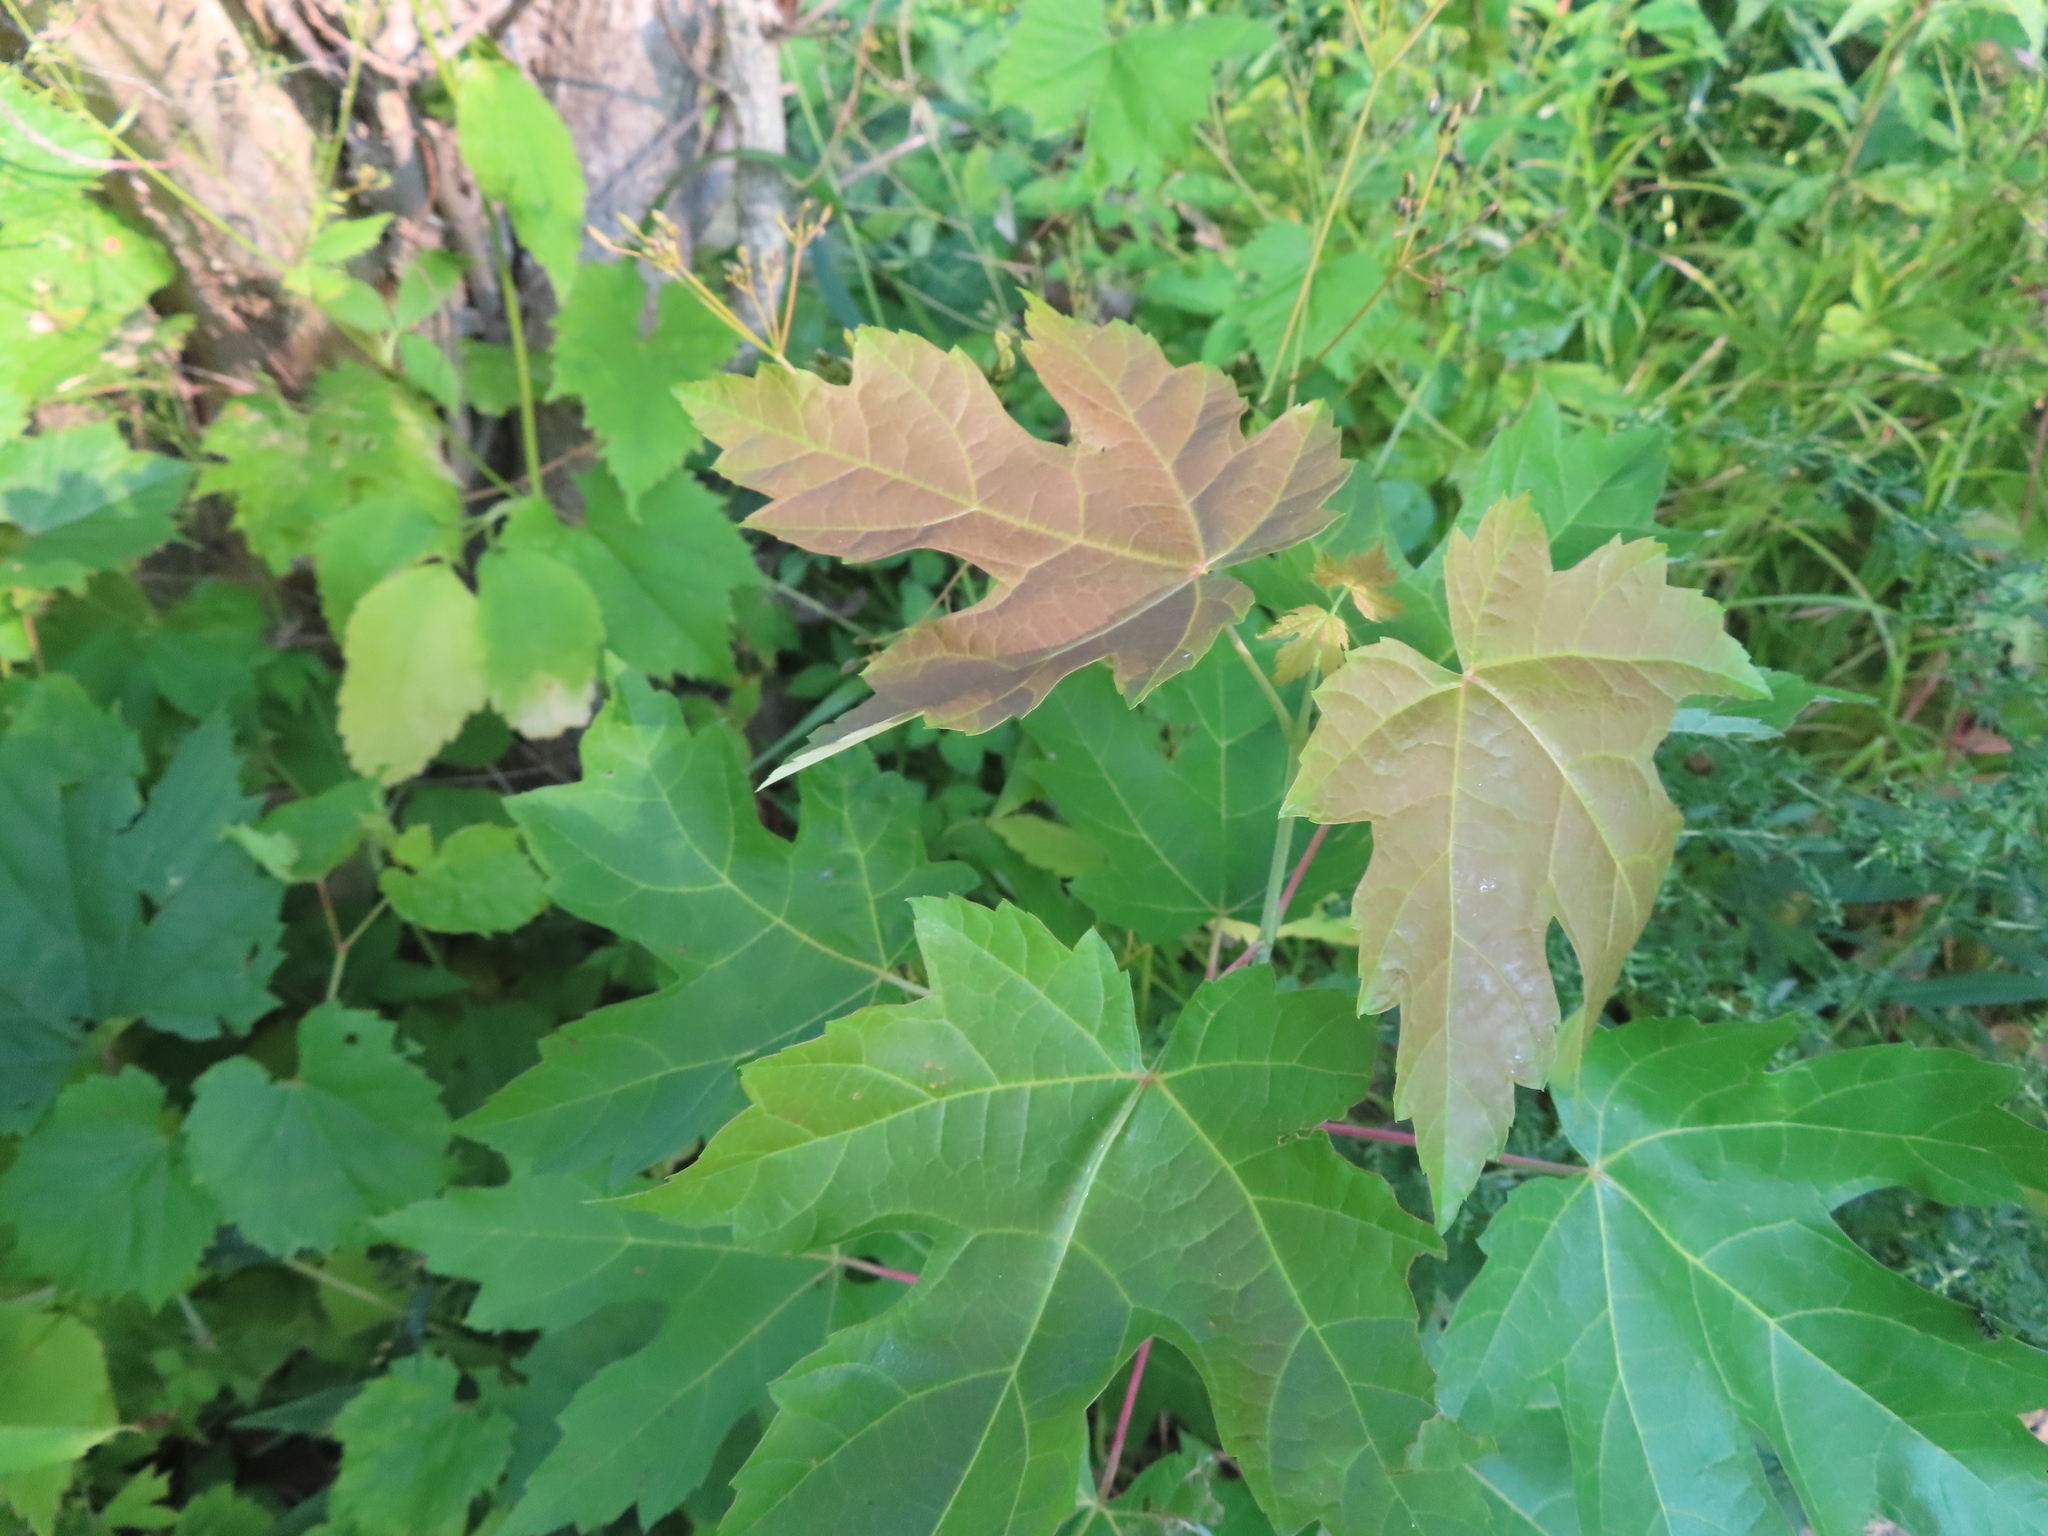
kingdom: Plantae
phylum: Tracheophyta
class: Magnoliopsida
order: Sapindales
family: Sapindaceae
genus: Acer
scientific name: Acer saccharinum
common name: Silver maple
